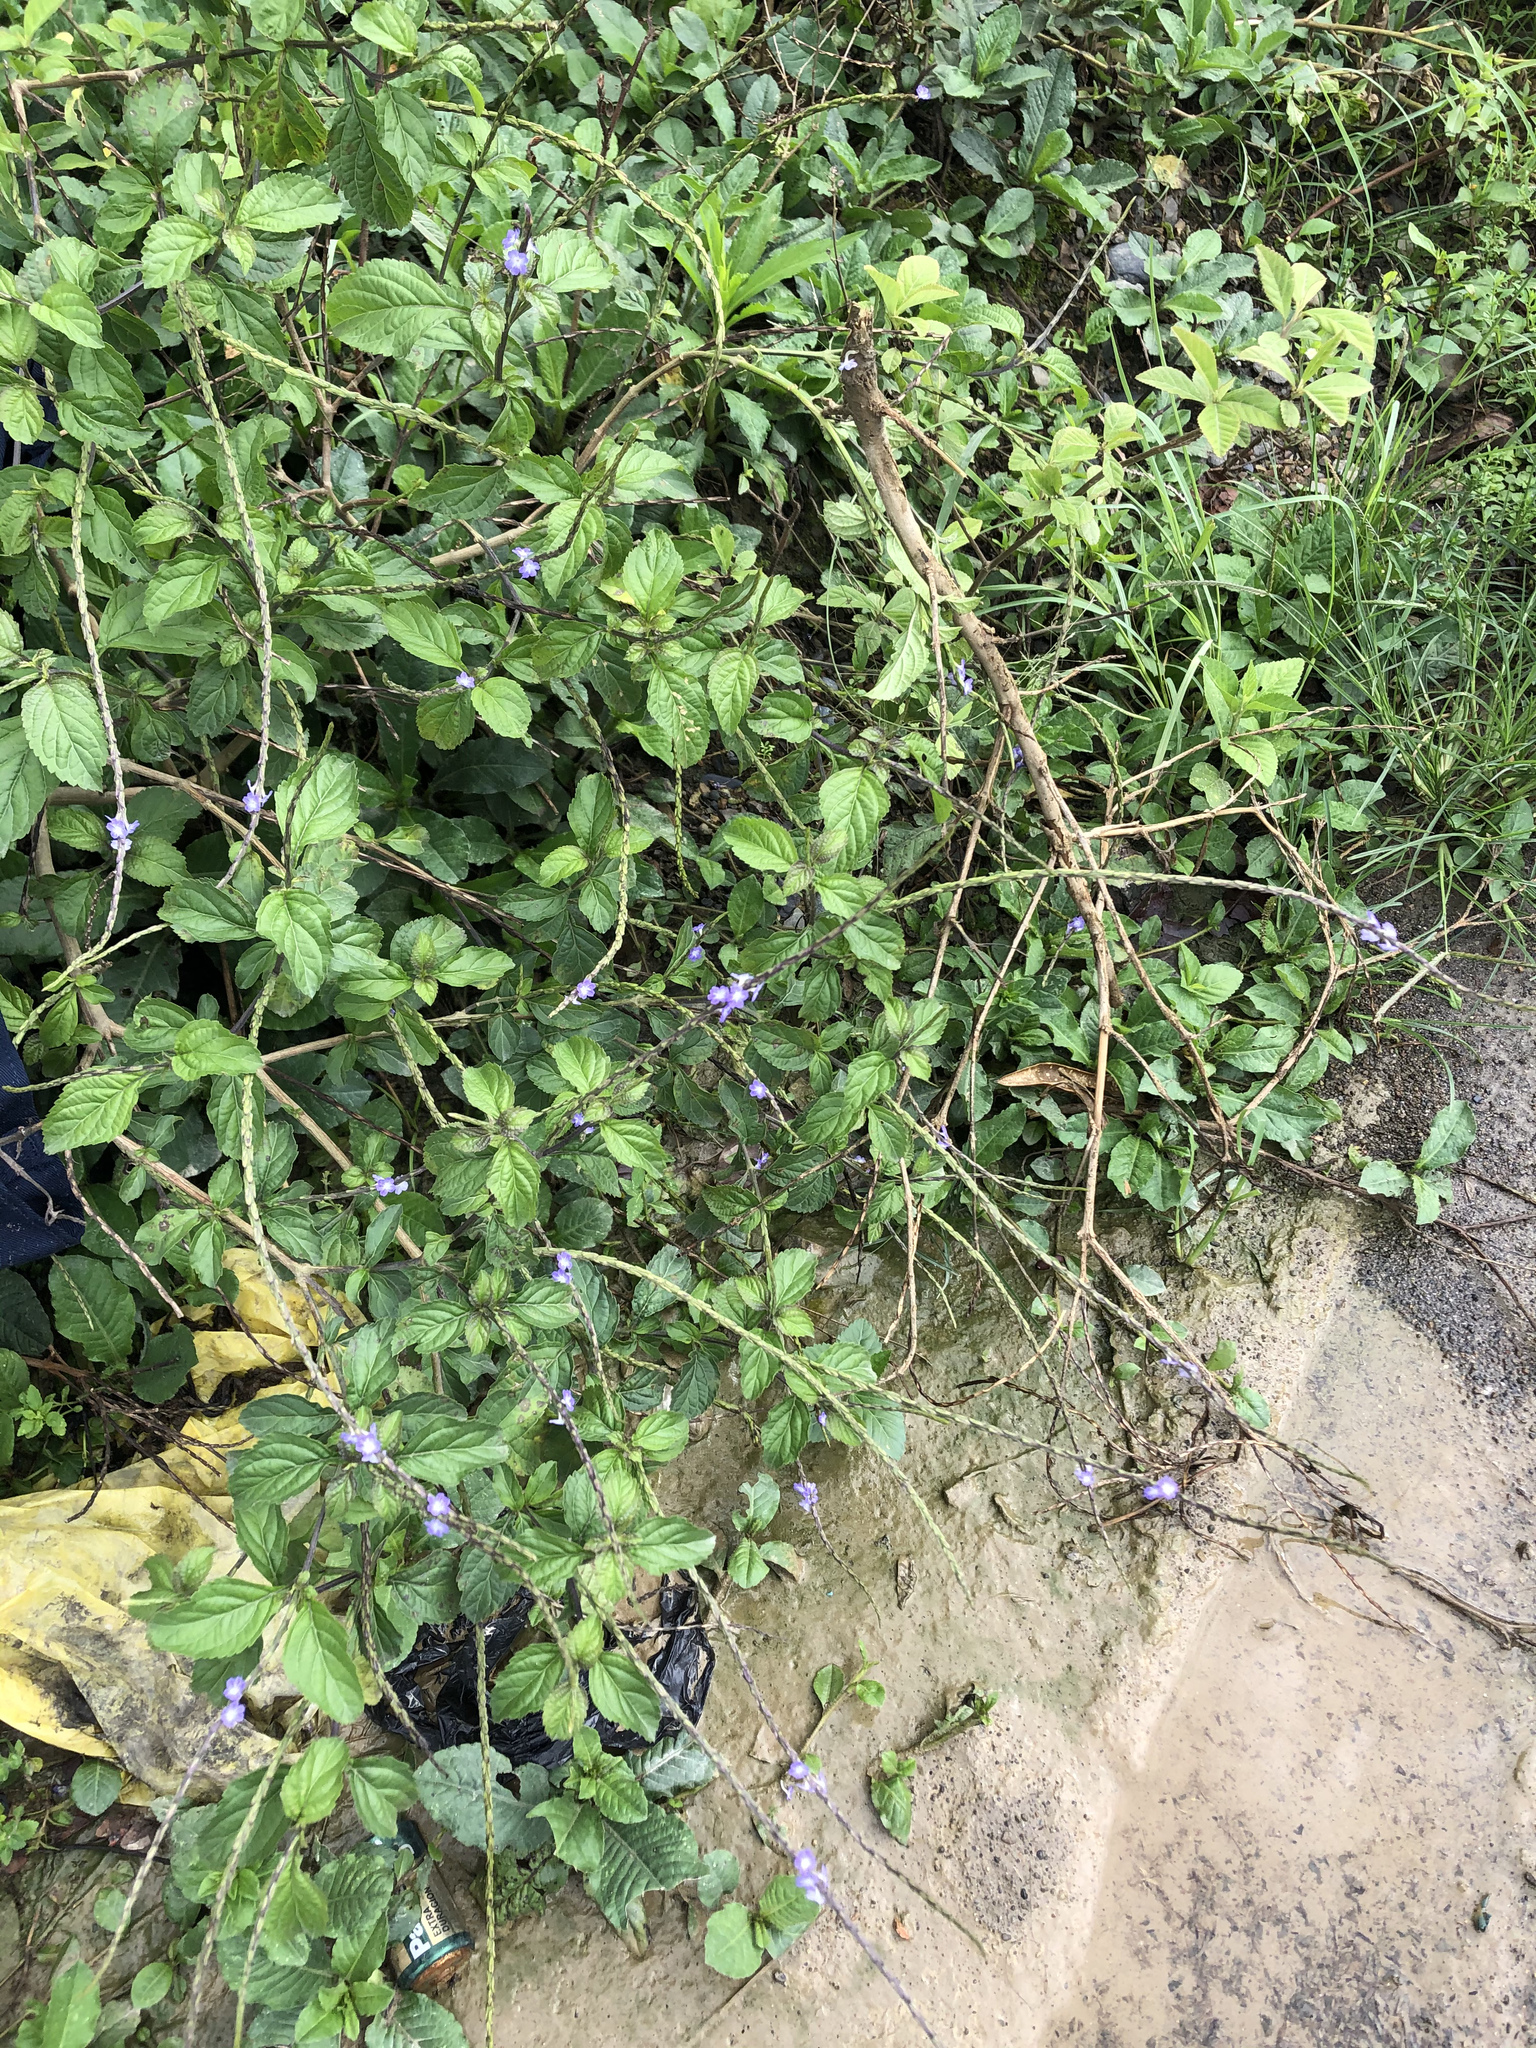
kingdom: Plantae
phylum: Tracheophyta
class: Magnoliopsida
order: Lamiales
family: Verbenaceae
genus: Stachytarpheta
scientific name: Stachytarpheta jamaicensis
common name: Light-blue snakeweed
